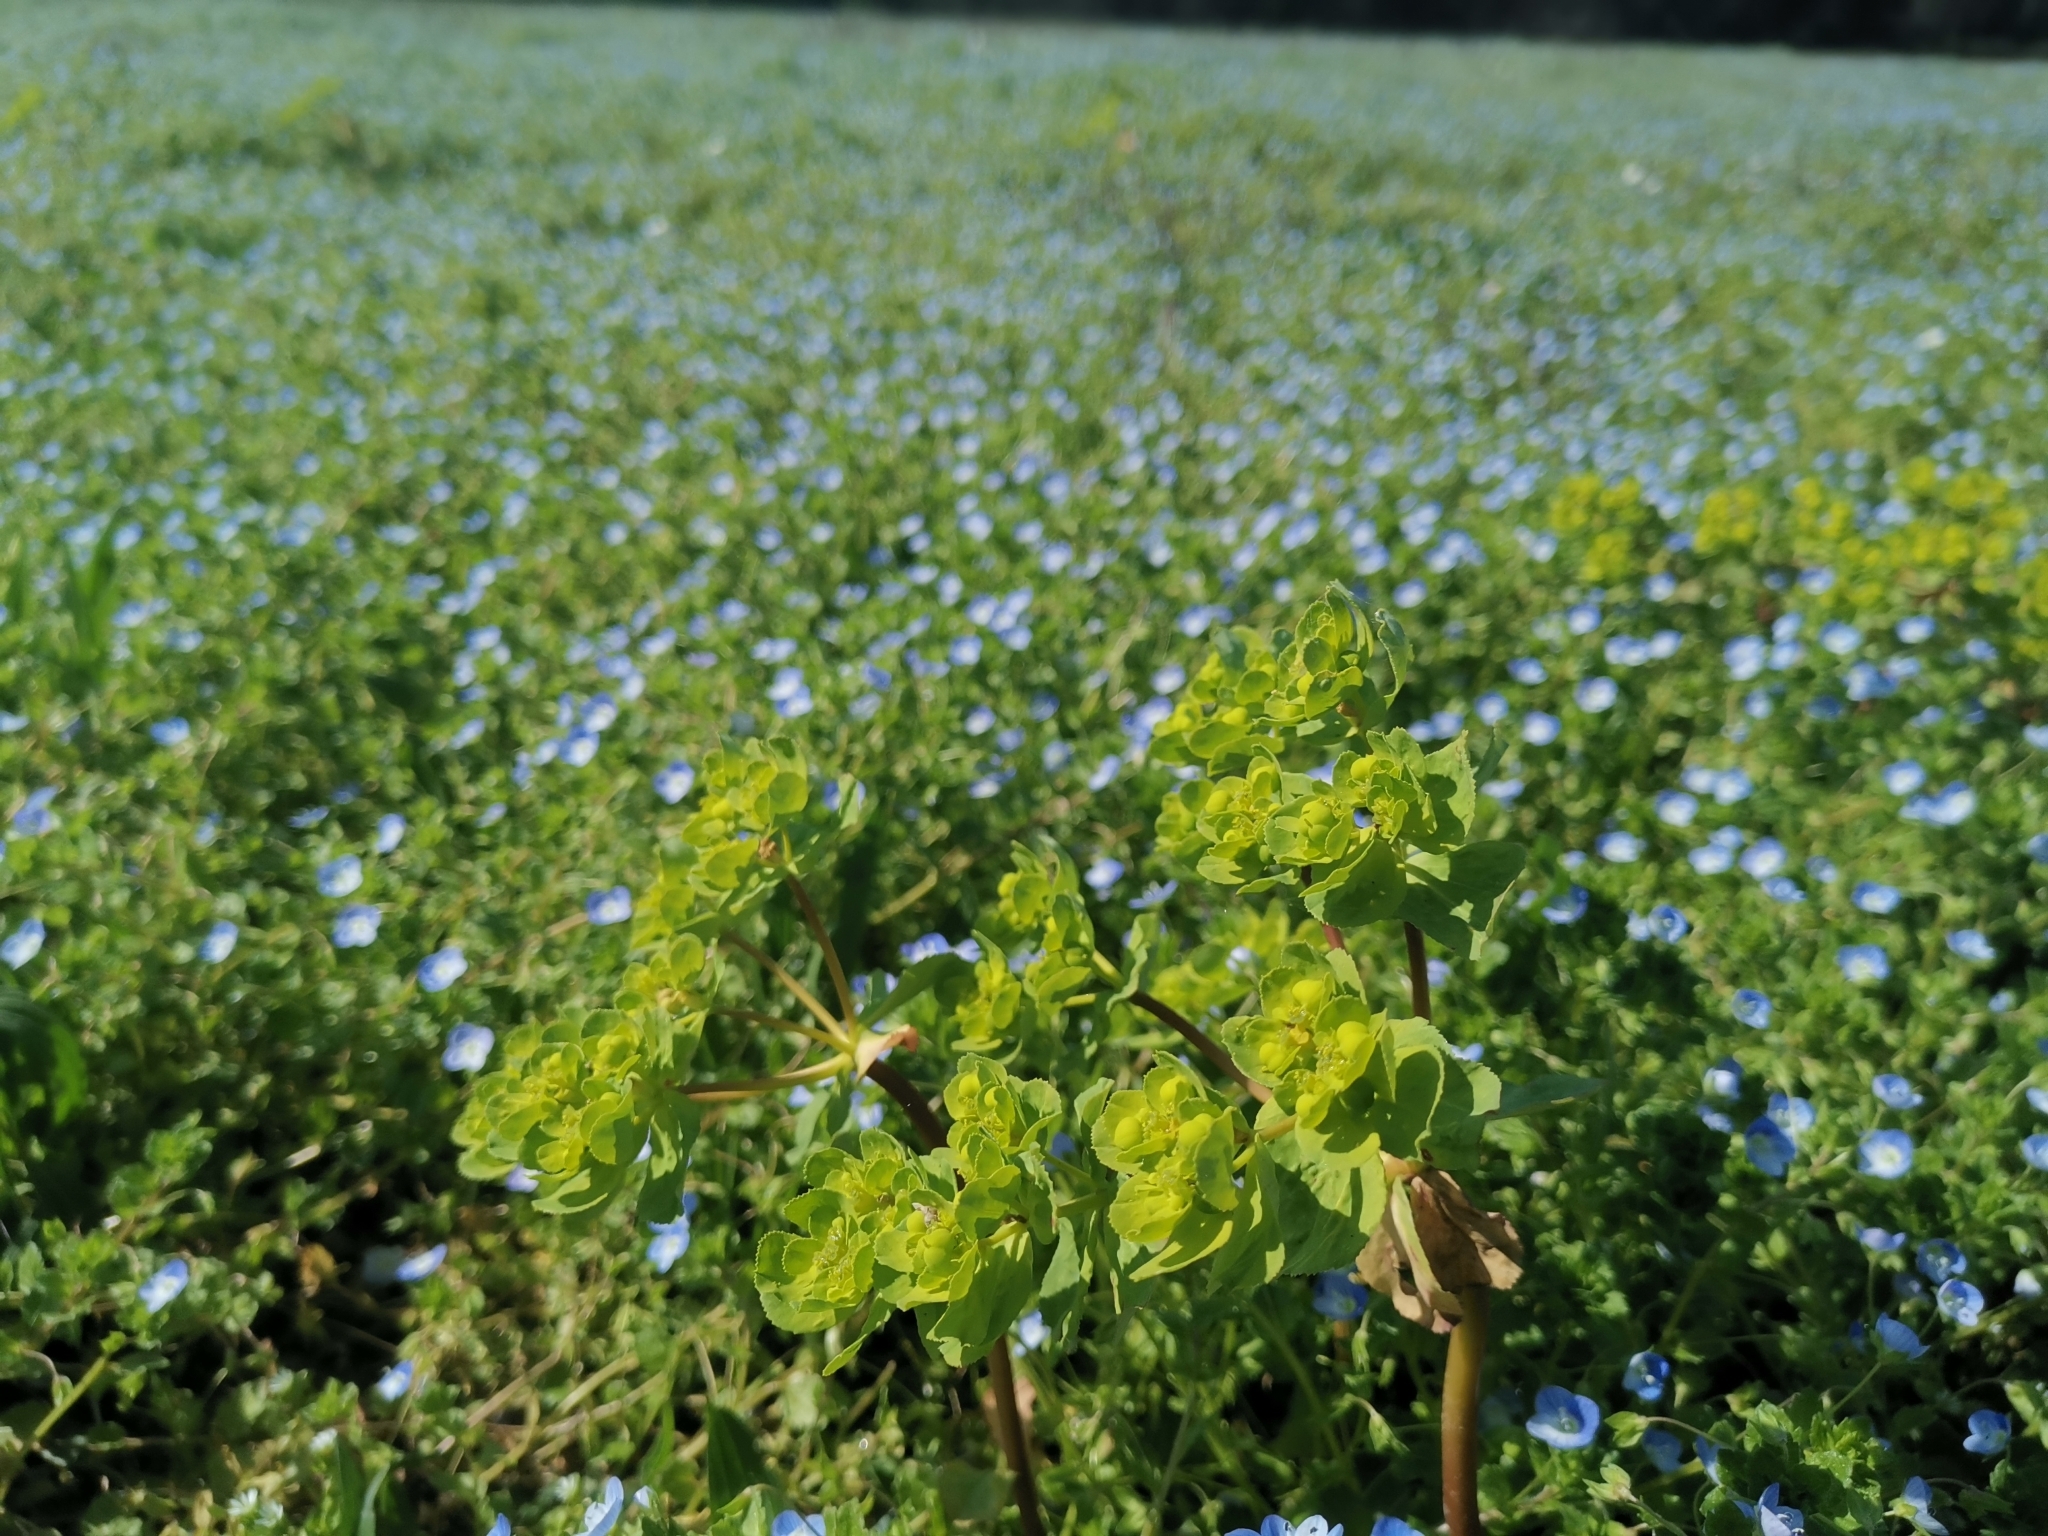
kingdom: Plantae
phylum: Tracheophyta
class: Magnoliopsida
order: Malpighiales
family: Euphorbiaceae
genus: Euphorbia
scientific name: Euphorbia helioscopia
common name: Sun spurge
